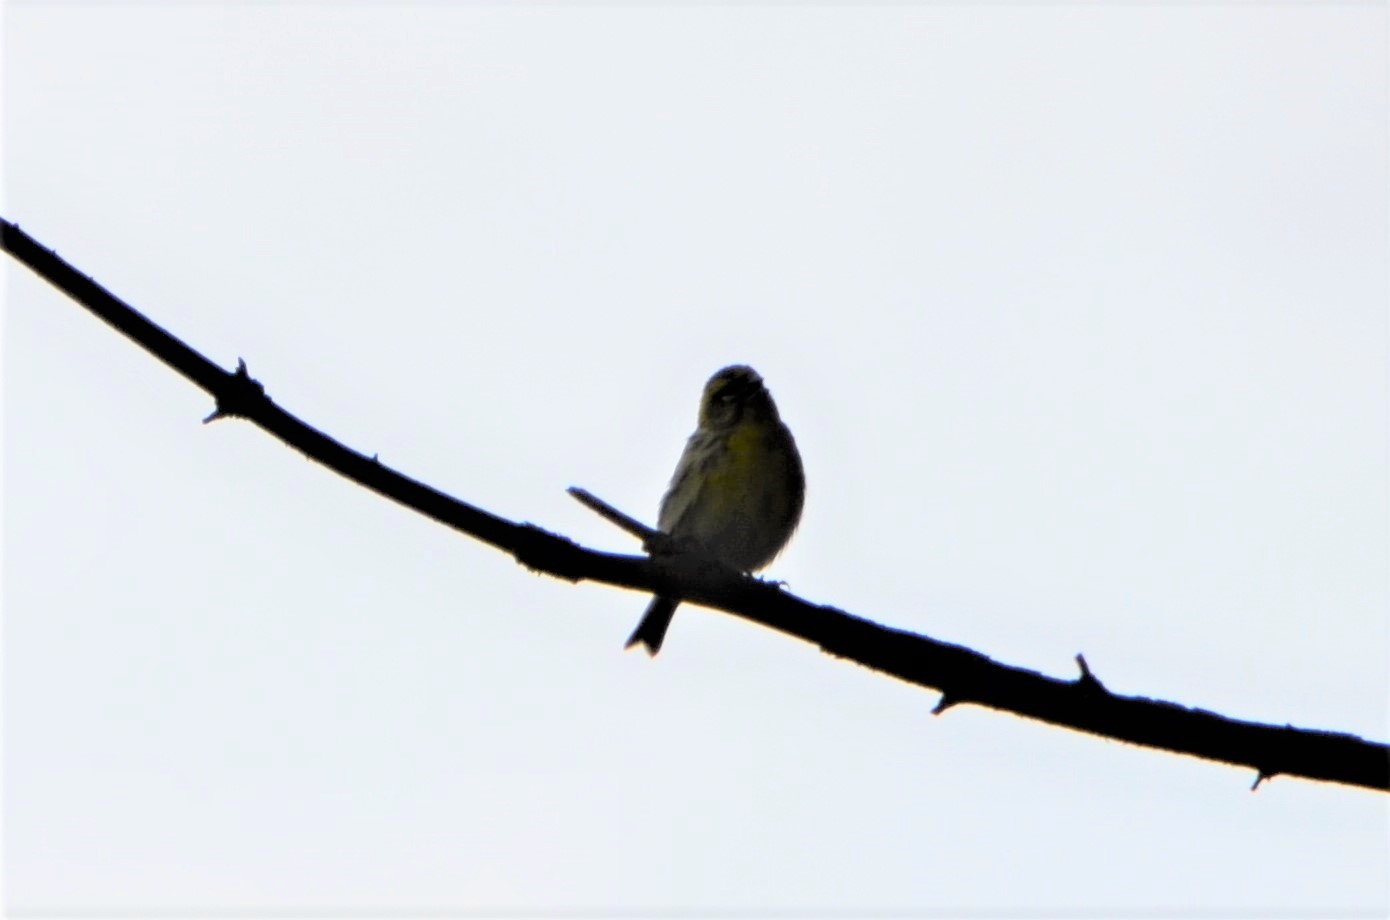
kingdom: Animalia
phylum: Chordata
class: Aves
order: Passeriformes
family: Fringillidae
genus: Serinus
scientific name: Serinus serinus
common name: European serin
